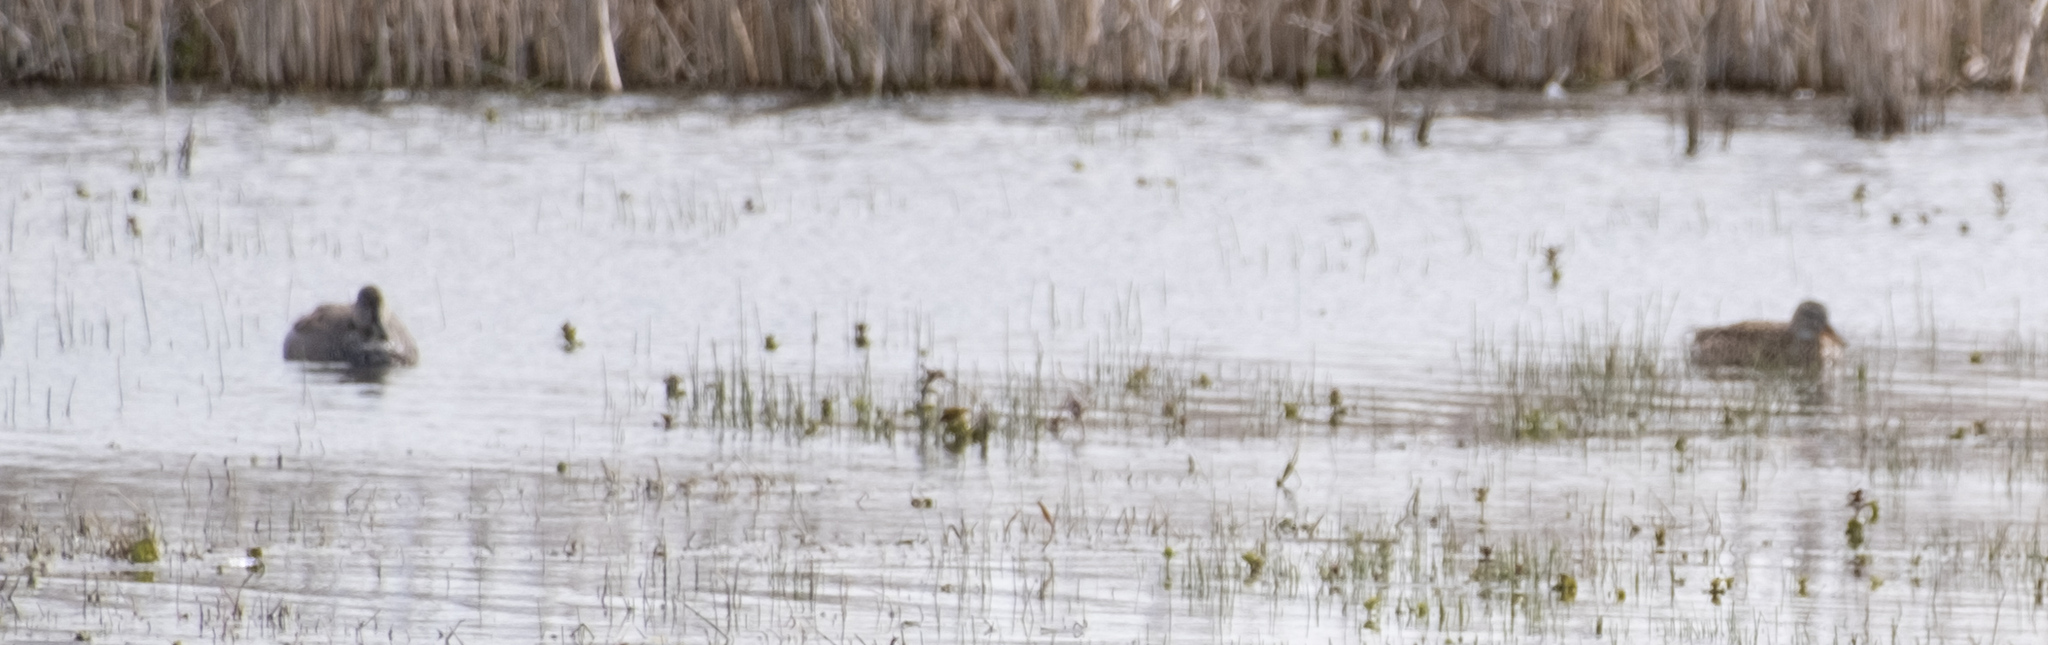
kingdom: Animalia
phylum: Chordata
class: Aves
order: Anseriformes
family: Anatidae
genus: Mareca
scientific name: Mareca strepera
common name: Gadwall
